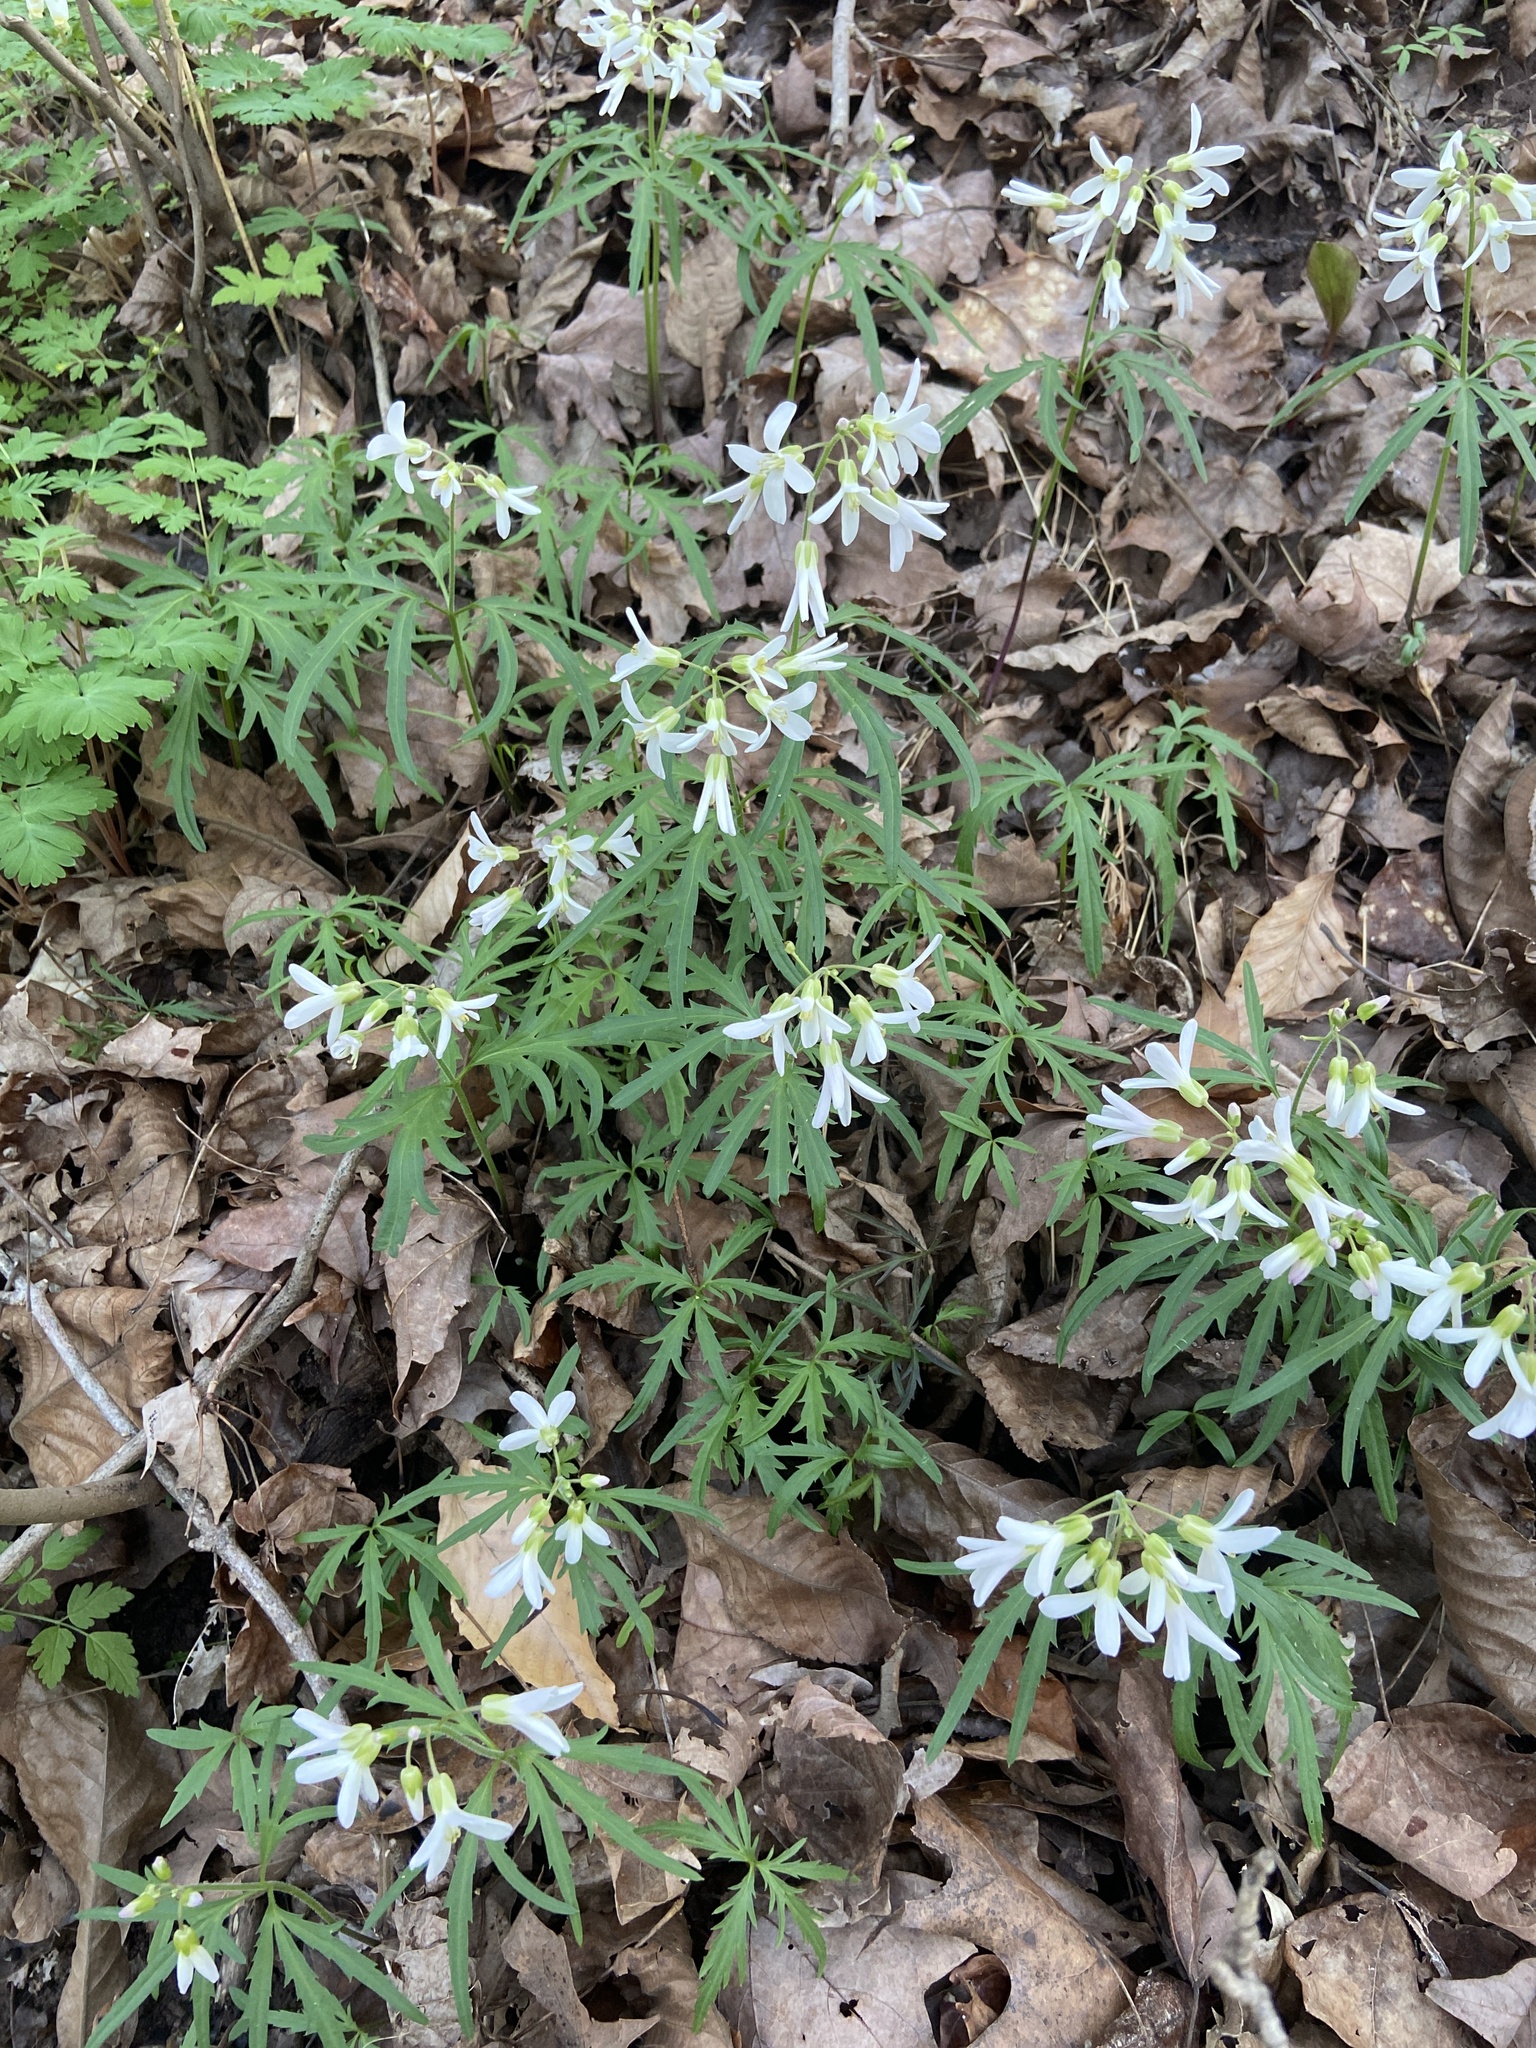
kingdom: Plantae
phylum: Tracheophyta
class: Magnoliopsida
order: Brassicales
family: Brassicaceae
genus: Cardamine
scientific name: Cardamine concatenata
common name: Cut-leaf toothcup
